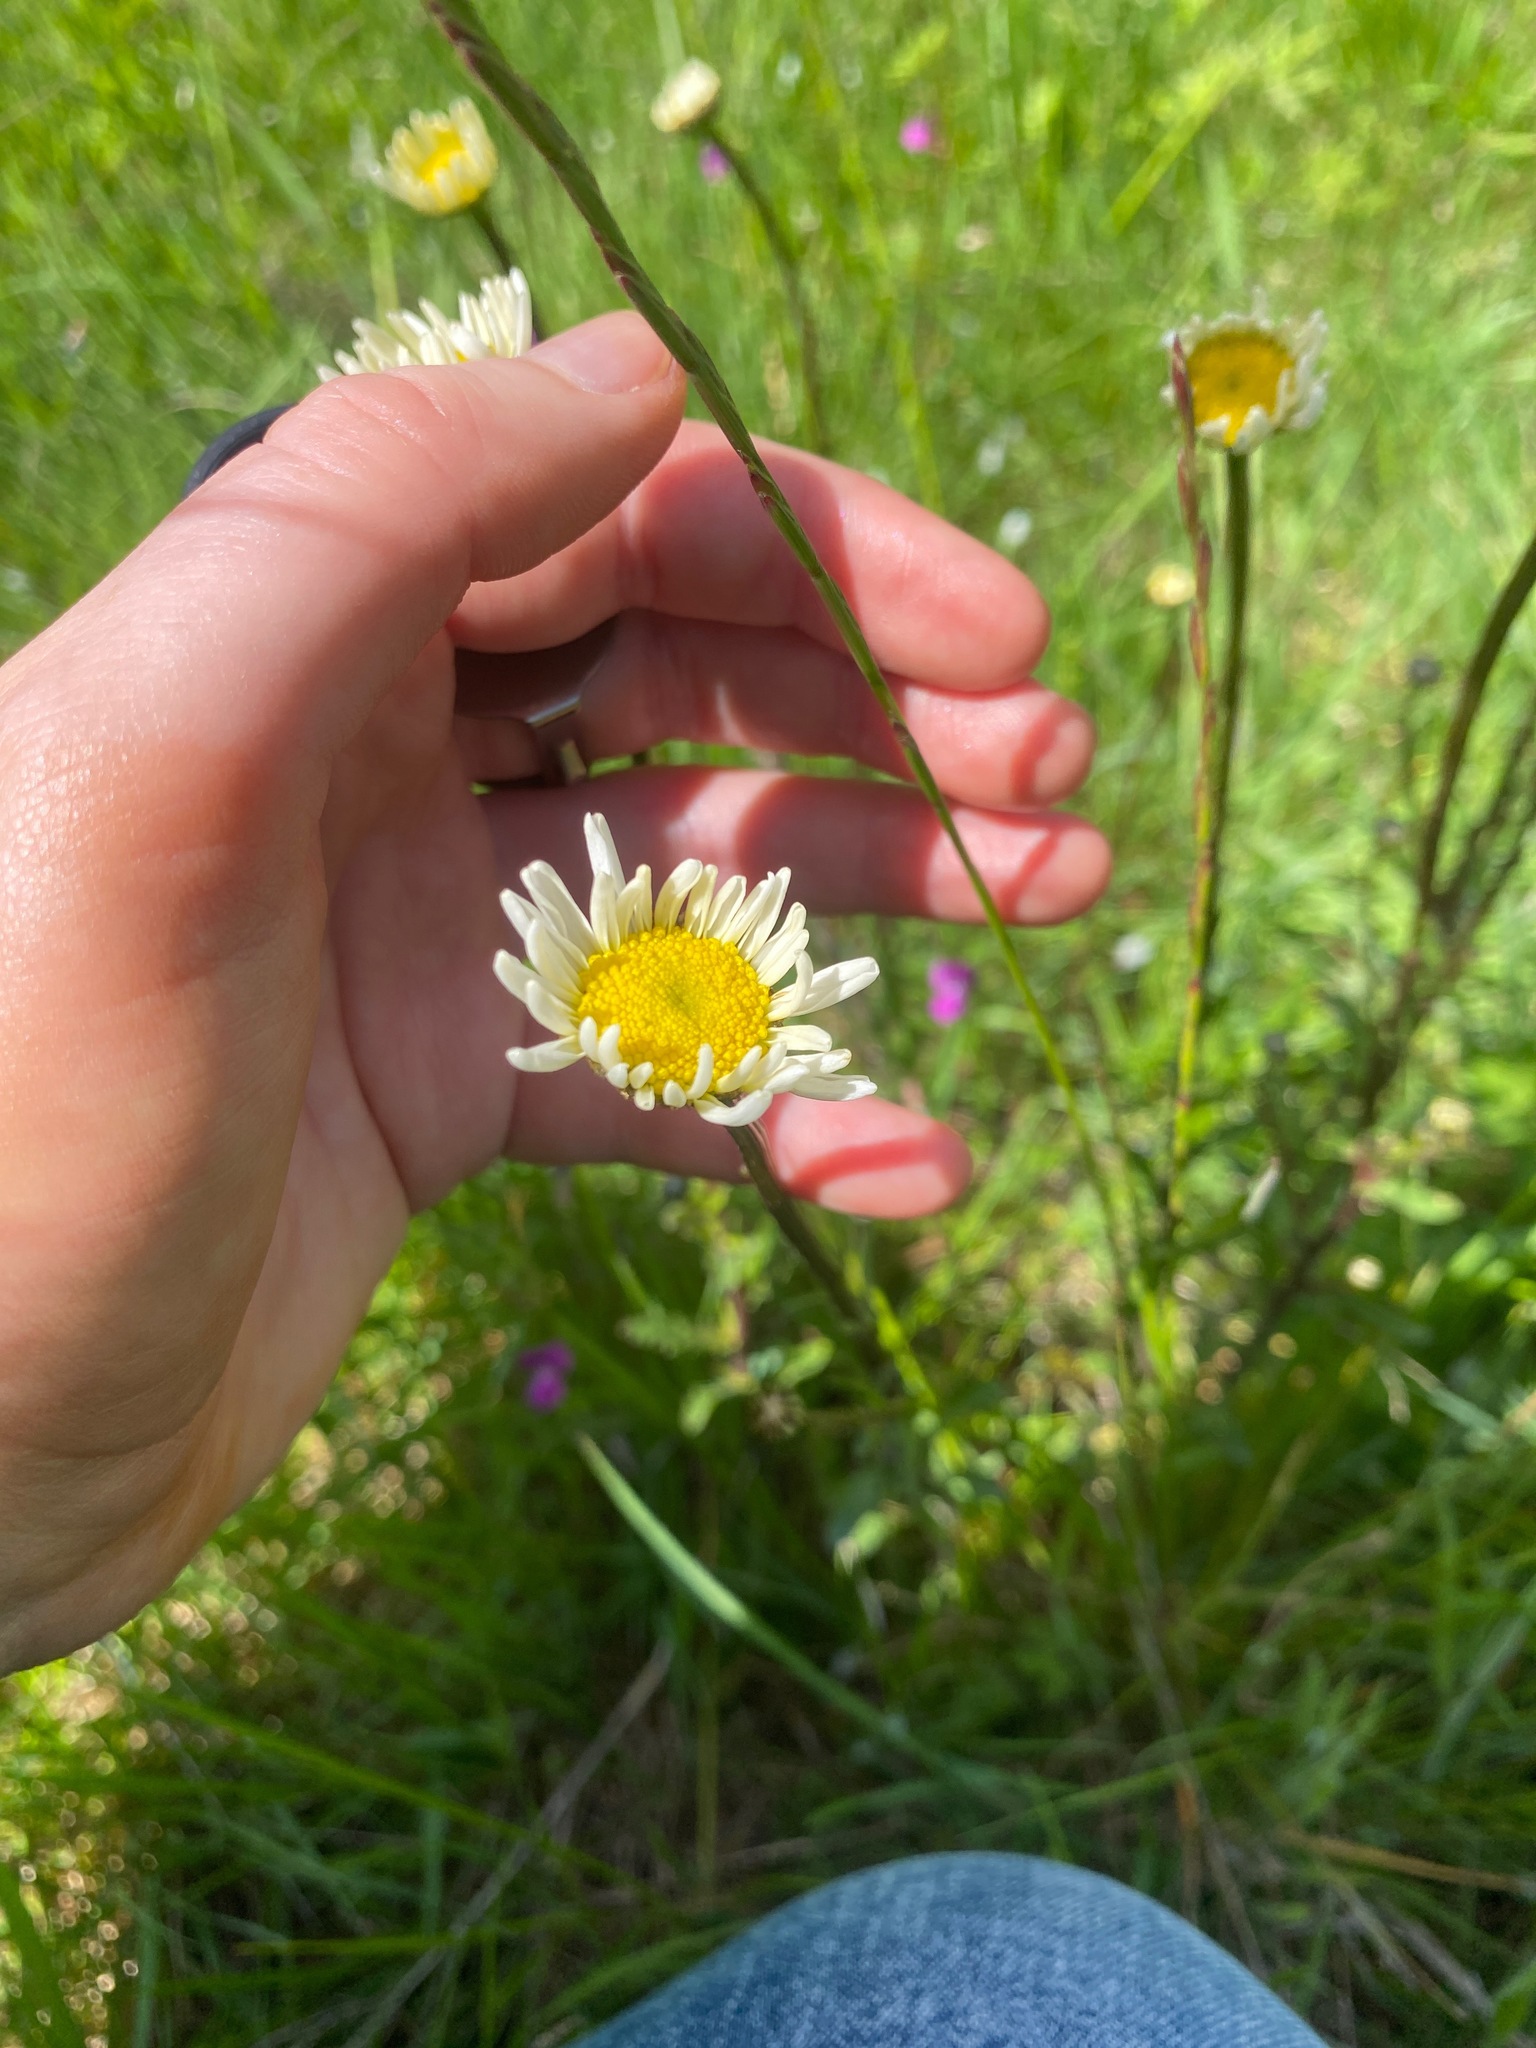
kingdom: Plantae
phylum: Tracheophyta
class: Magnoliopsida
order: Asterales
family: Asteraceae
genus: Leucanthemum
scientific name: Leucanthemum vulgare
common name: Oxeye daisy
